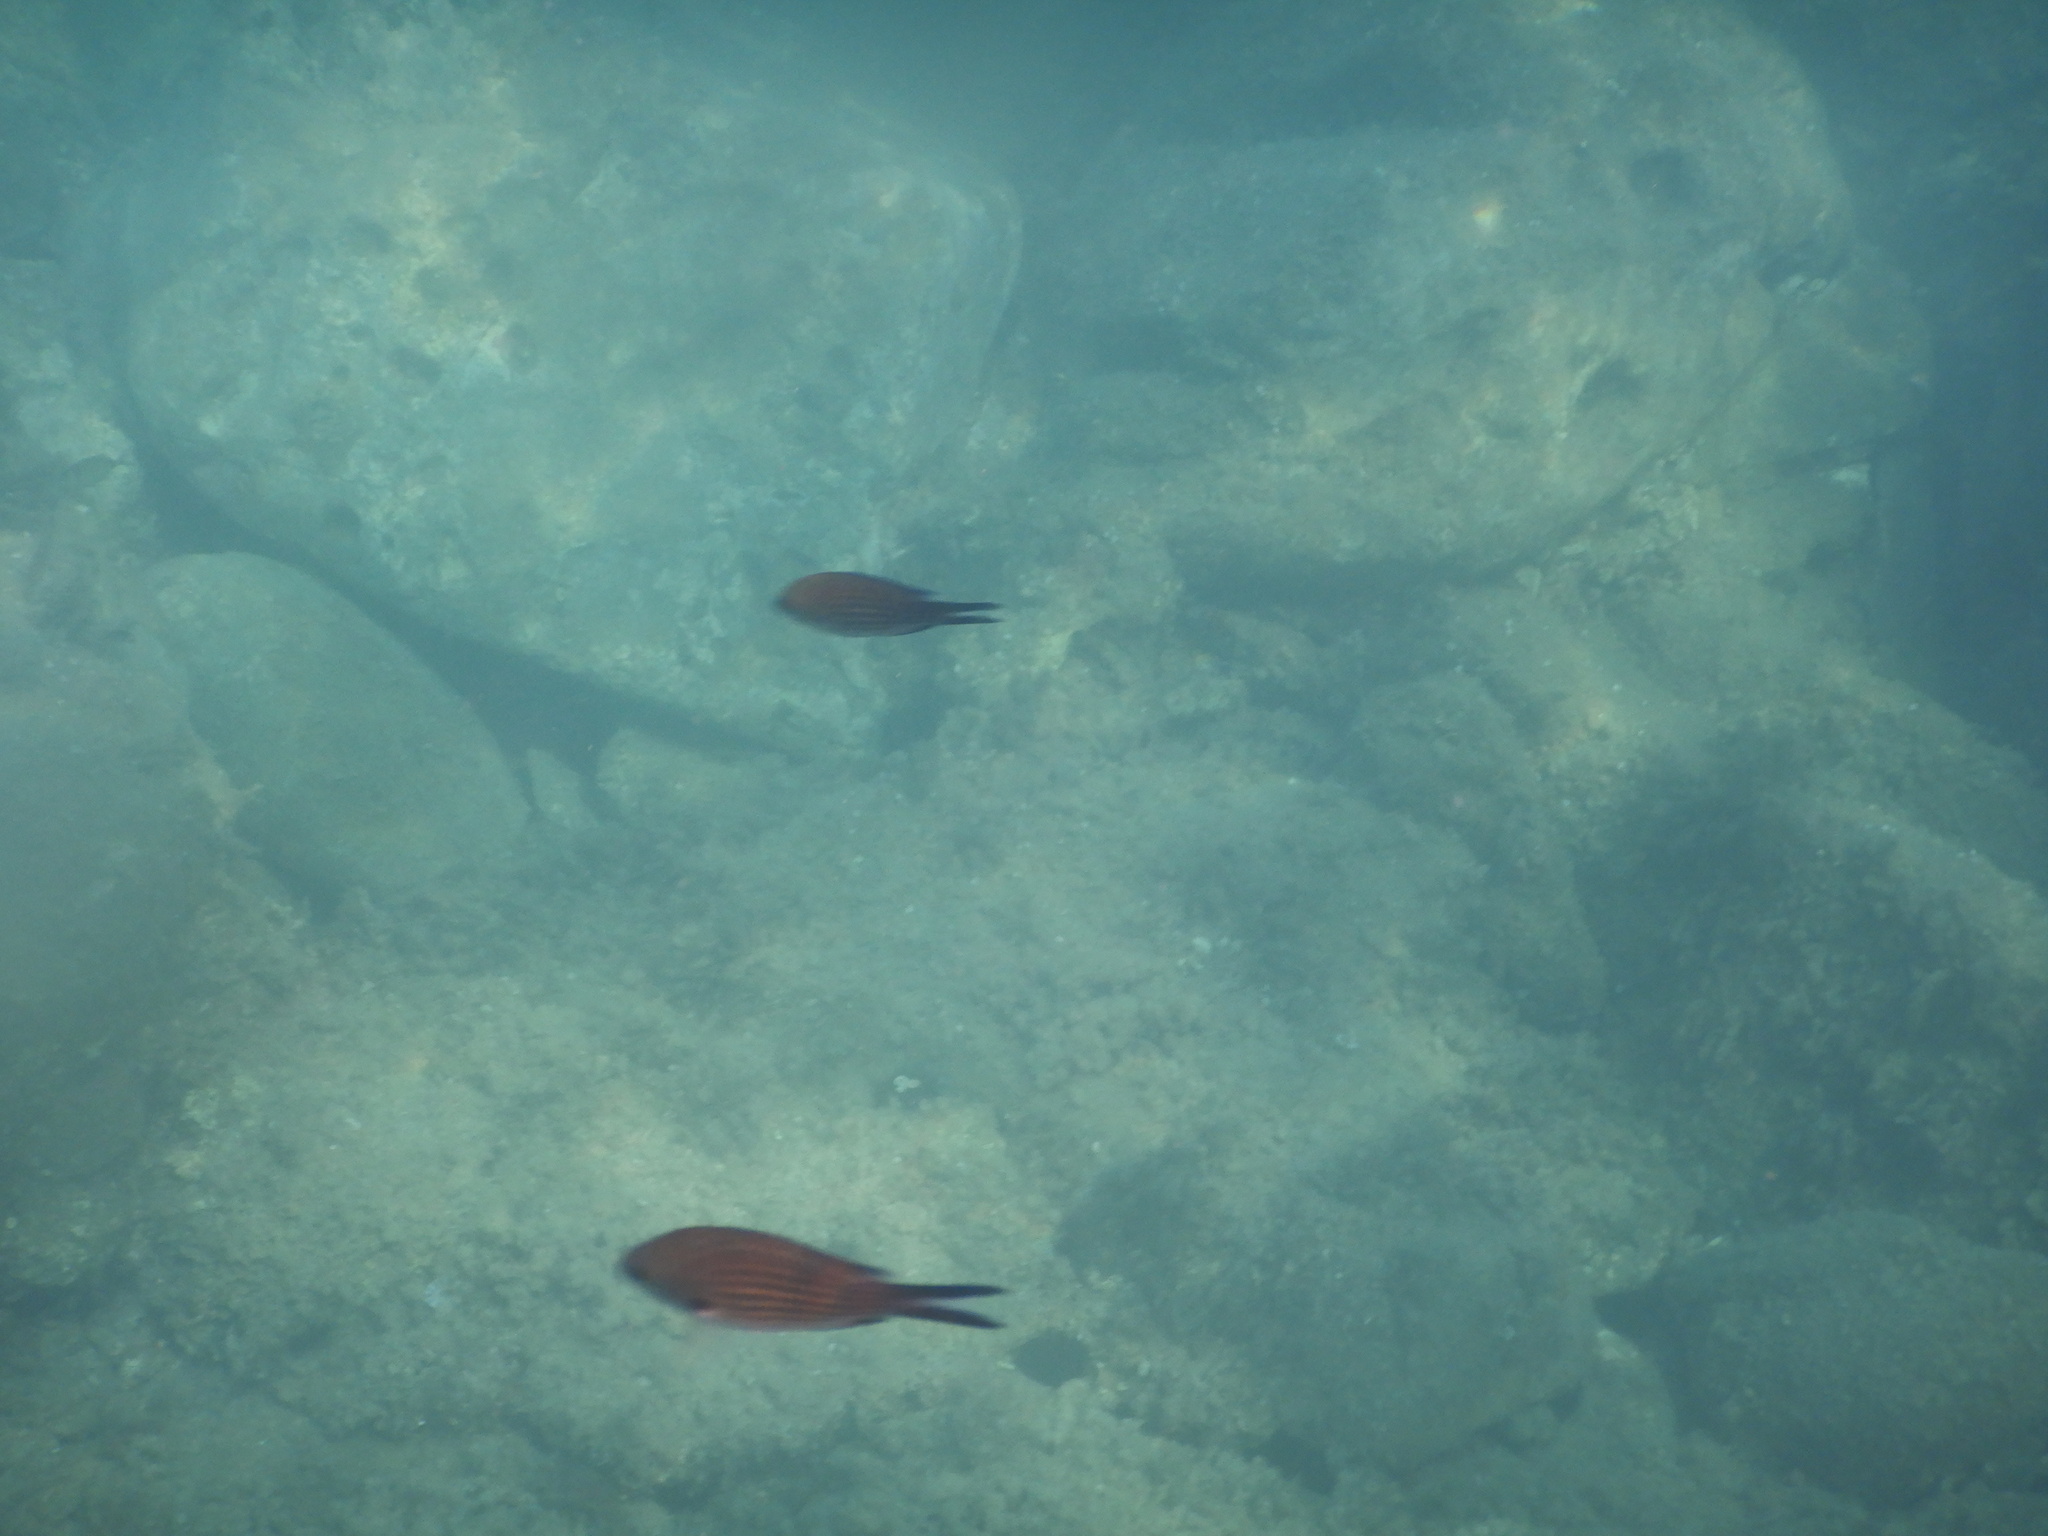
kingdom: Animalia
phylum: Chordata
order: Perciformes
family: Pomacentridae
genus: Chromis
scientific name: Chromis chromis
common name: Damselfish
